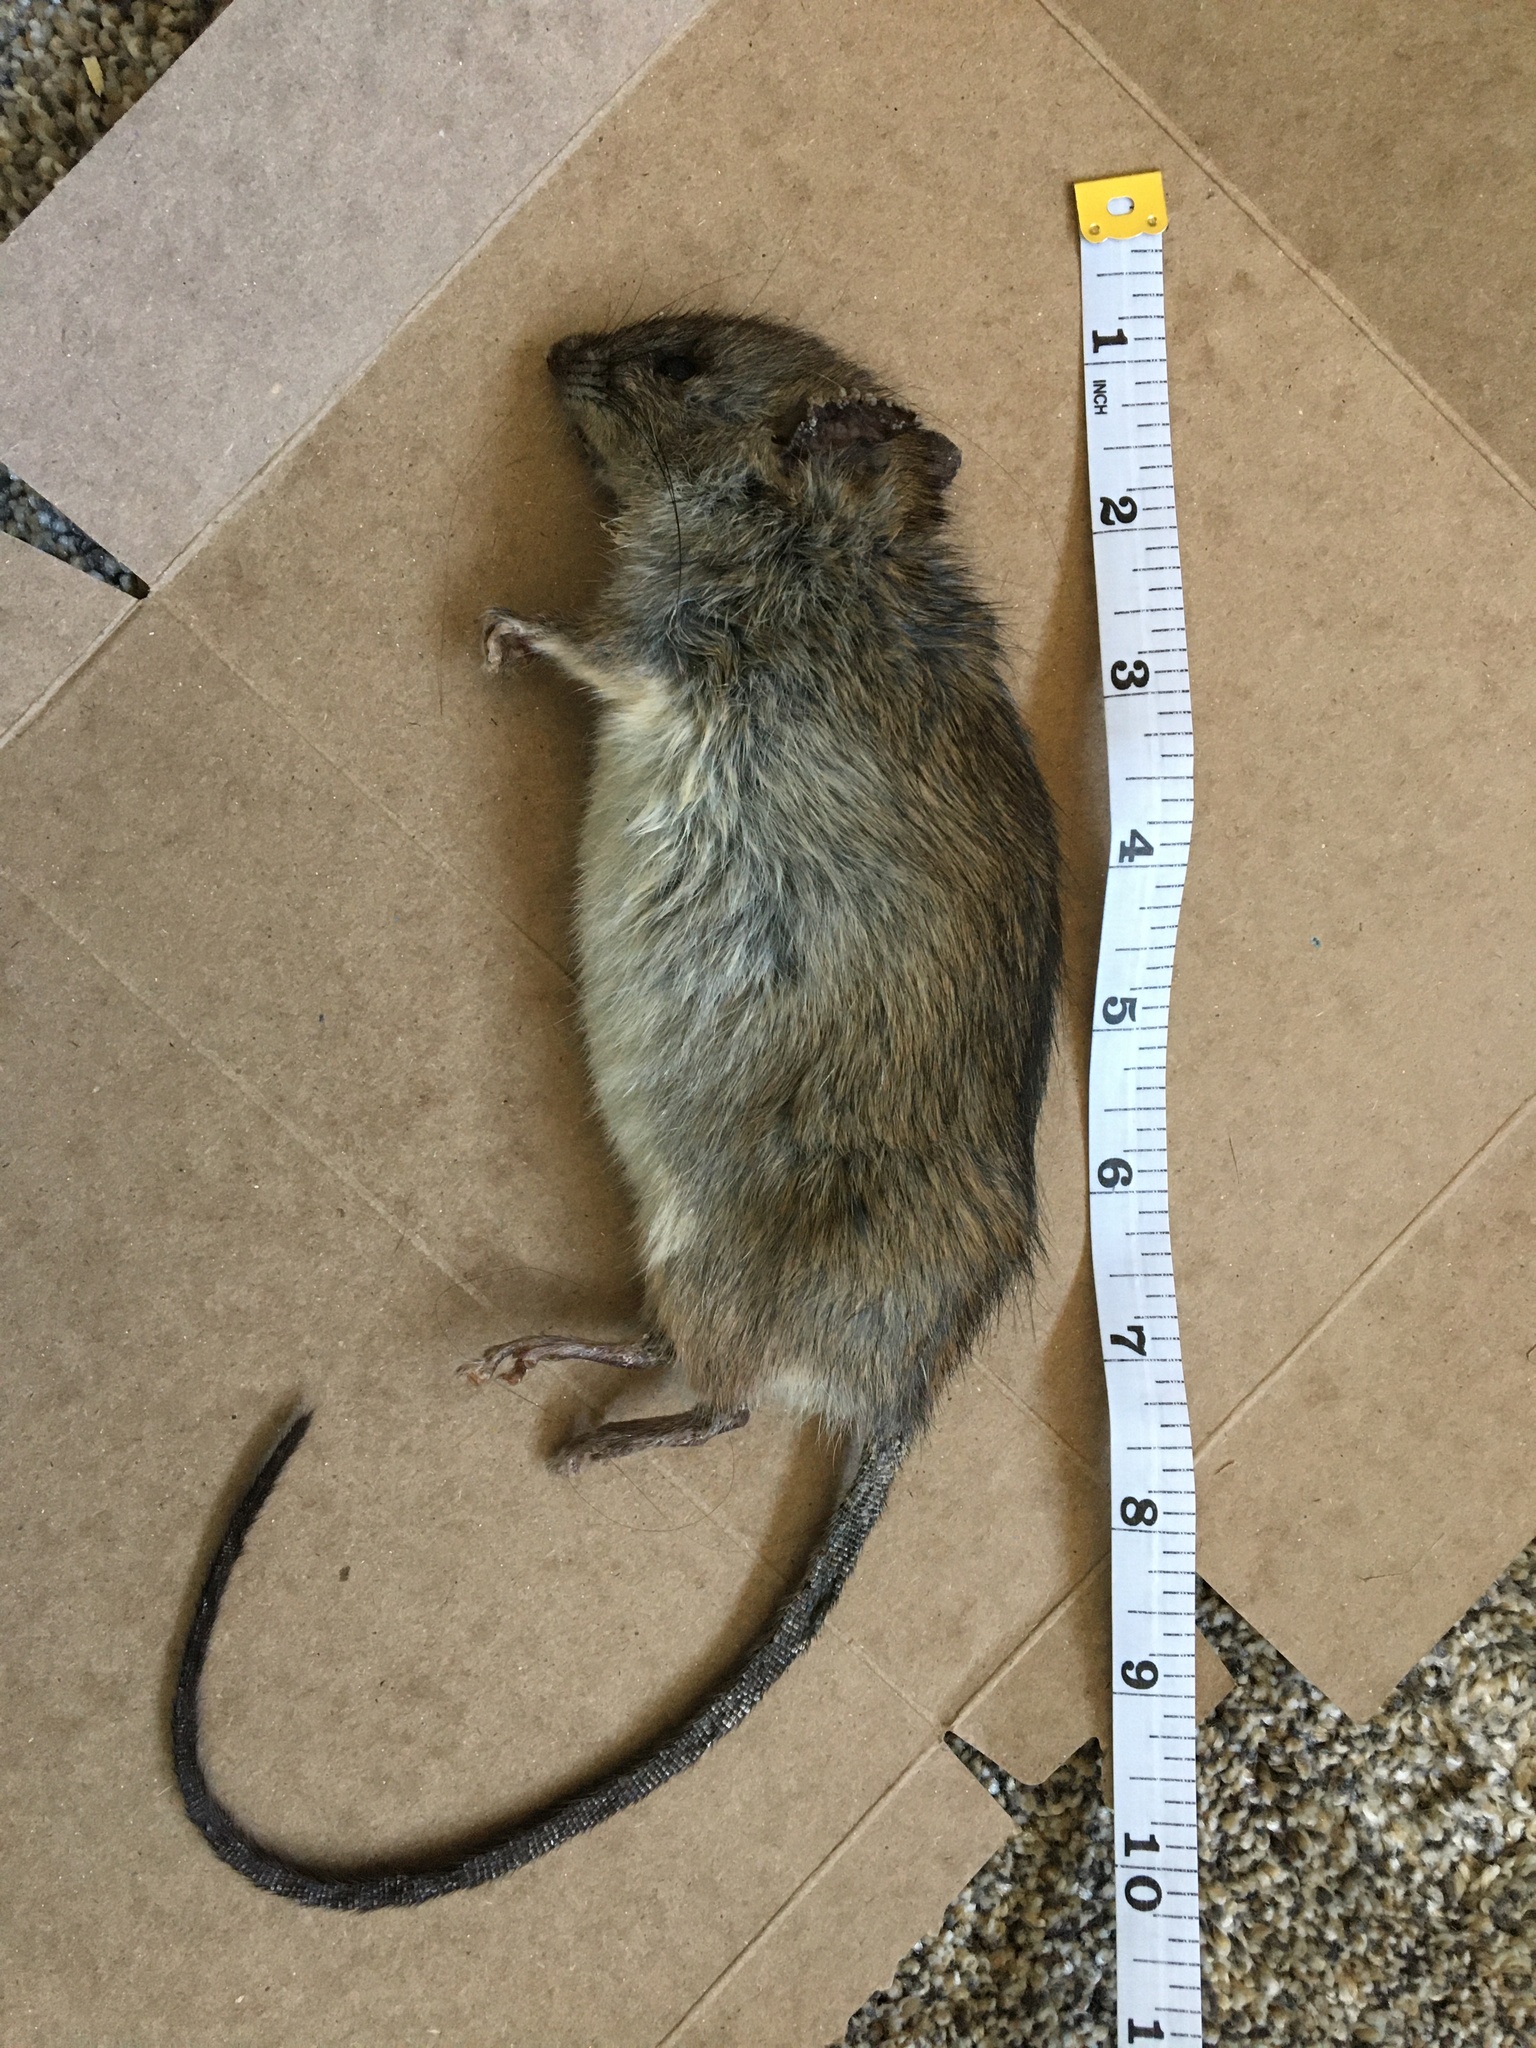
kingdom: Animalia
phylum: Chordata
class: Mammalia
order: Rodentia
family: Muridae
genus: Rattus
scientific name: Rattus norvegicus
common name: Brown rat
